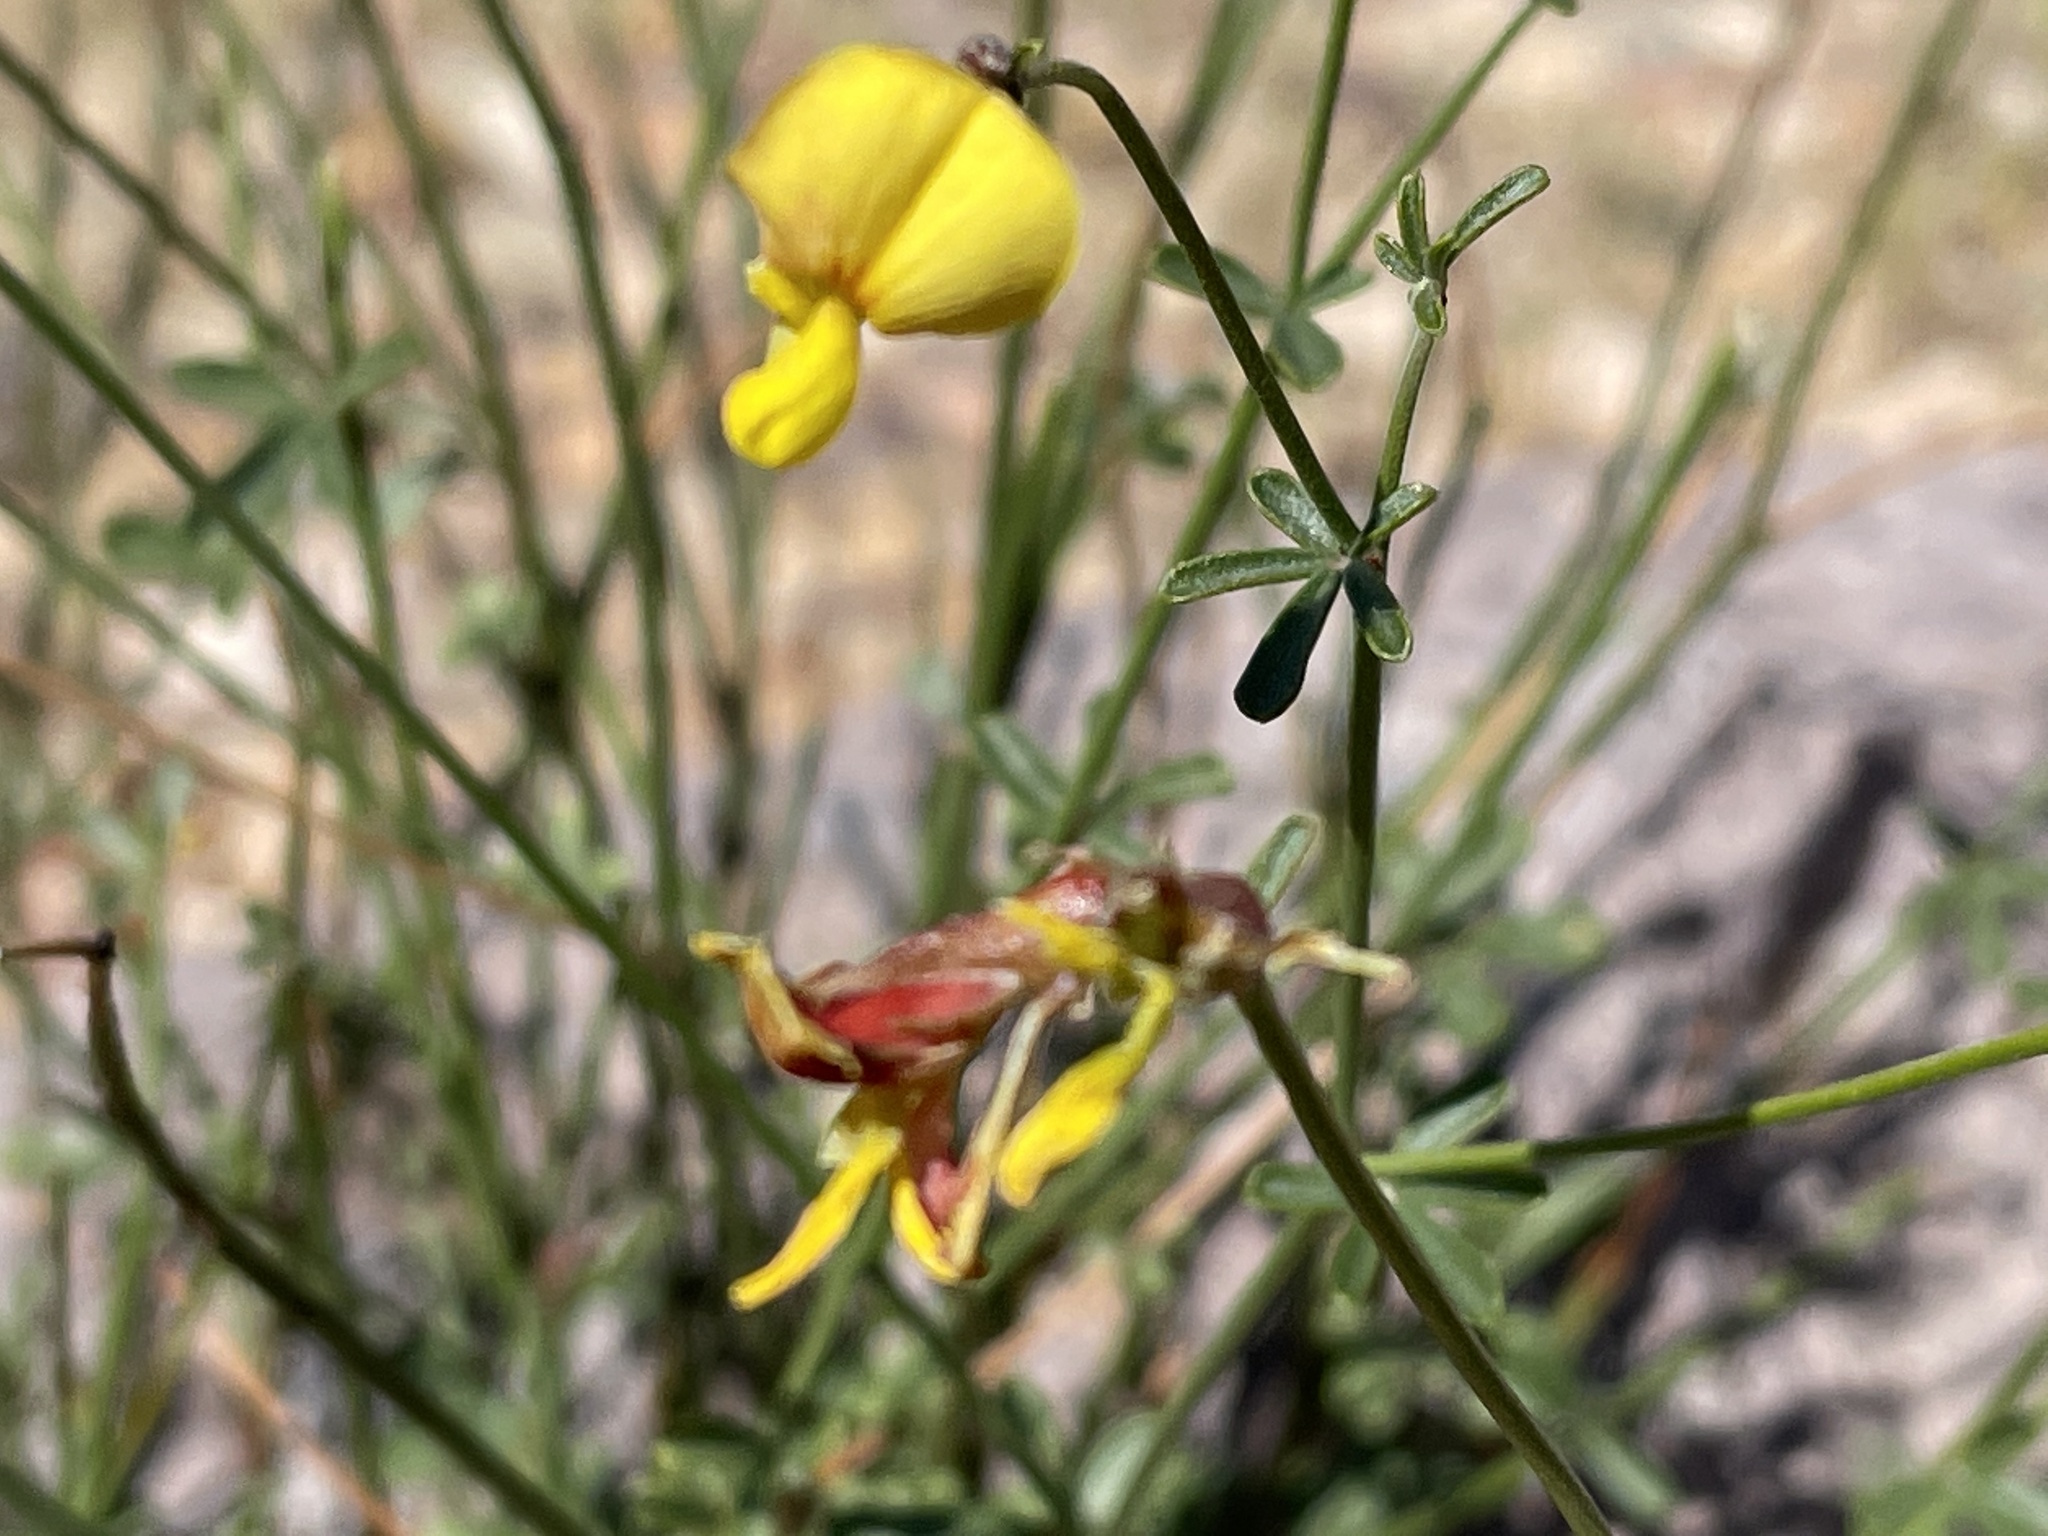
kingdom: Plantae
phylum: Tracheophyta
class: Magnoliopsida
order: Fabales
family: Fabaceae
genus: Acmispon
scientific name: Acmispon rigidus
